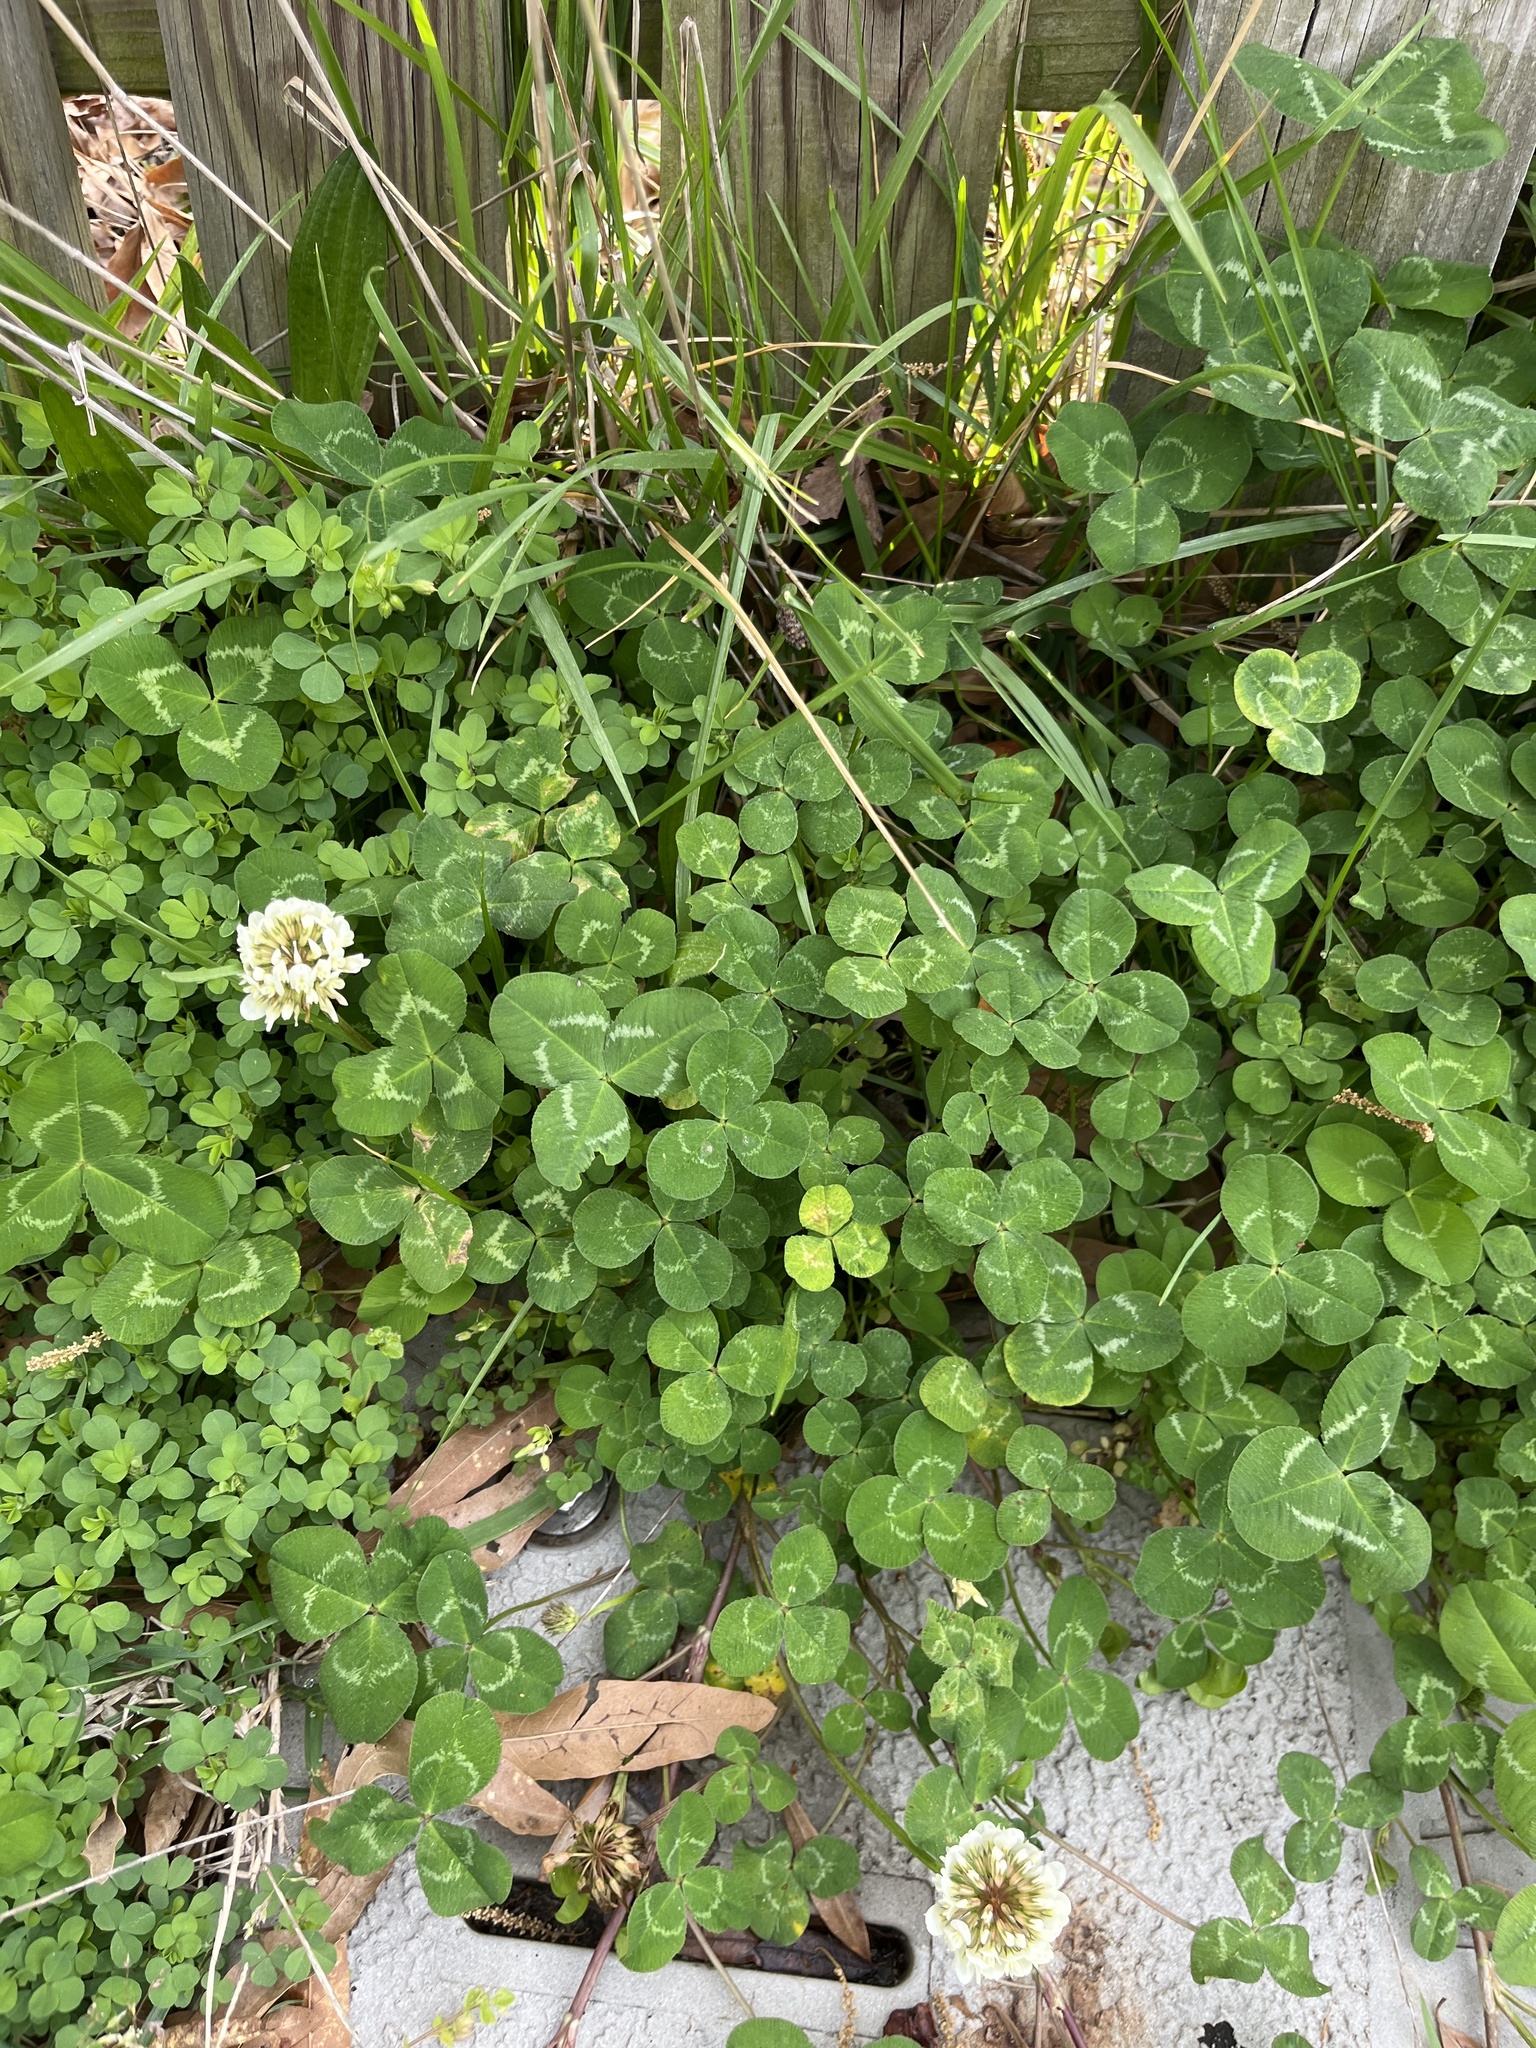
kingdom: Plantae
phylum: Tracheophyta
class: Magnoliopsida
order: Fabales
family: Fabaceae
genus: Trifolium
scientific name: Trifolium repens
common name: White clover
